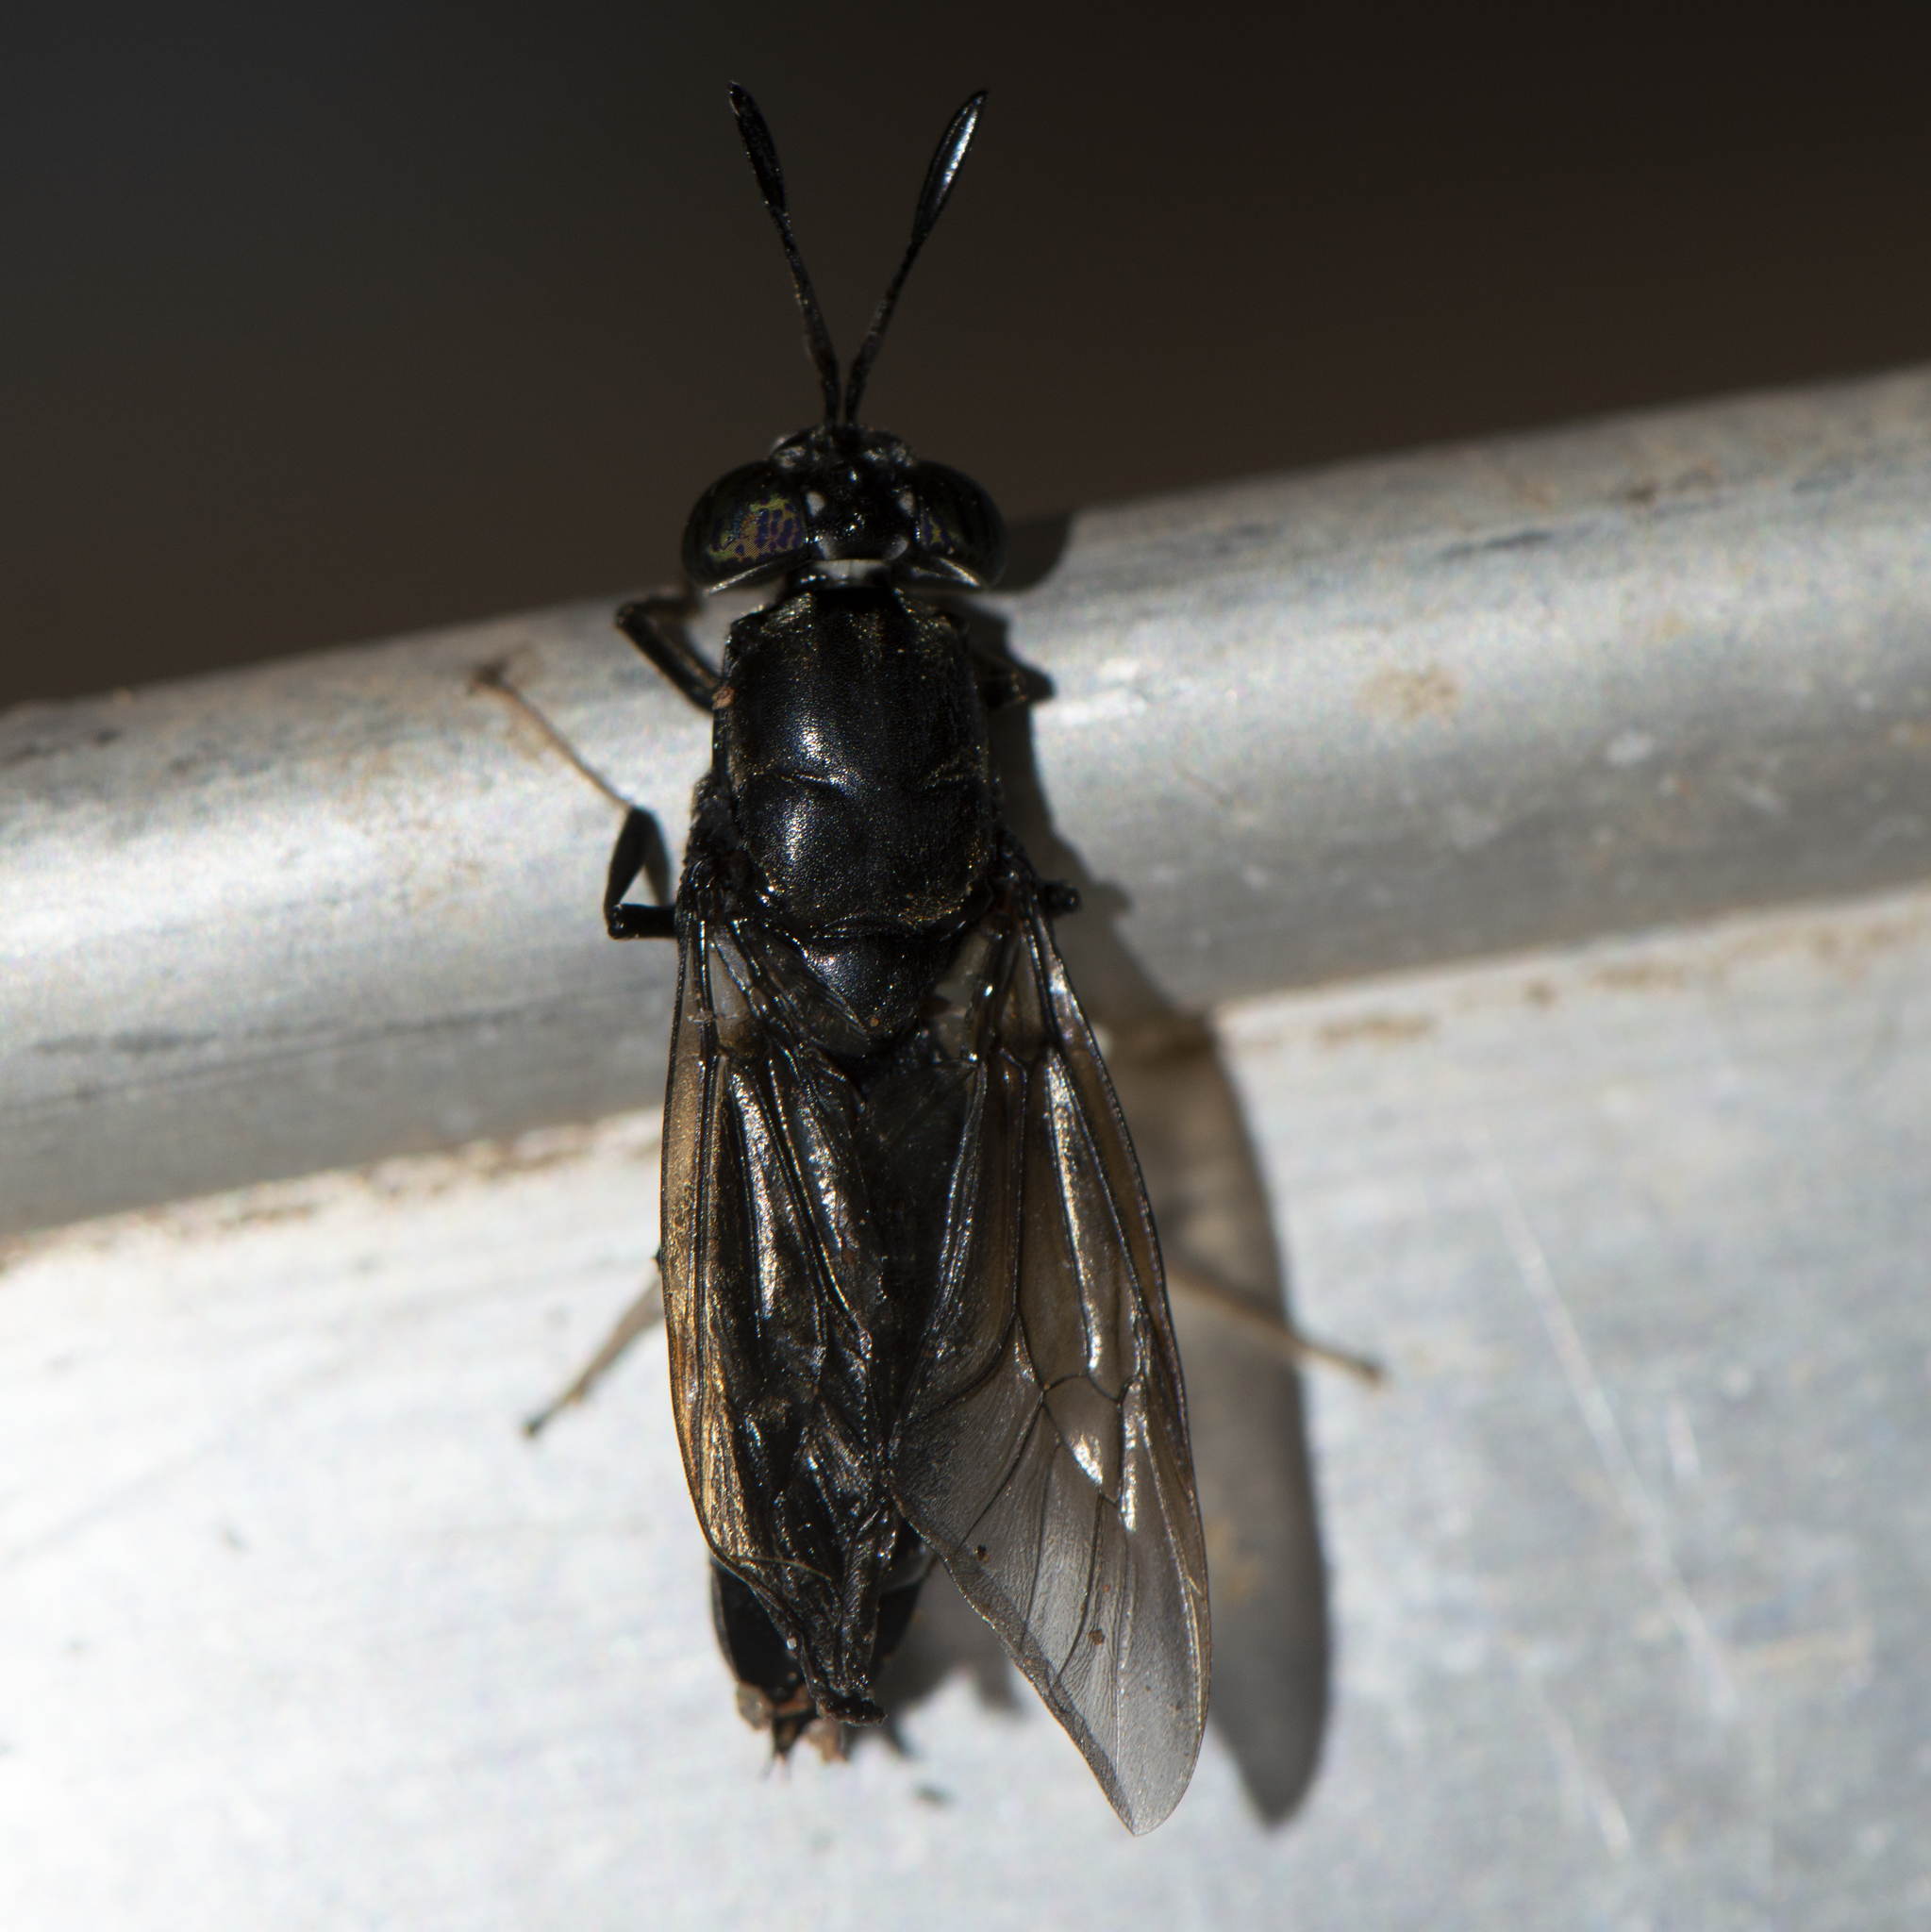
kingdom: Animalia
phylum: Arthropoda
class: Insecta
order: Diptera
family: Stratiomyidae
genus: Hermetia
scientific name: Hermetia illucens
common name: Black soldier fly
